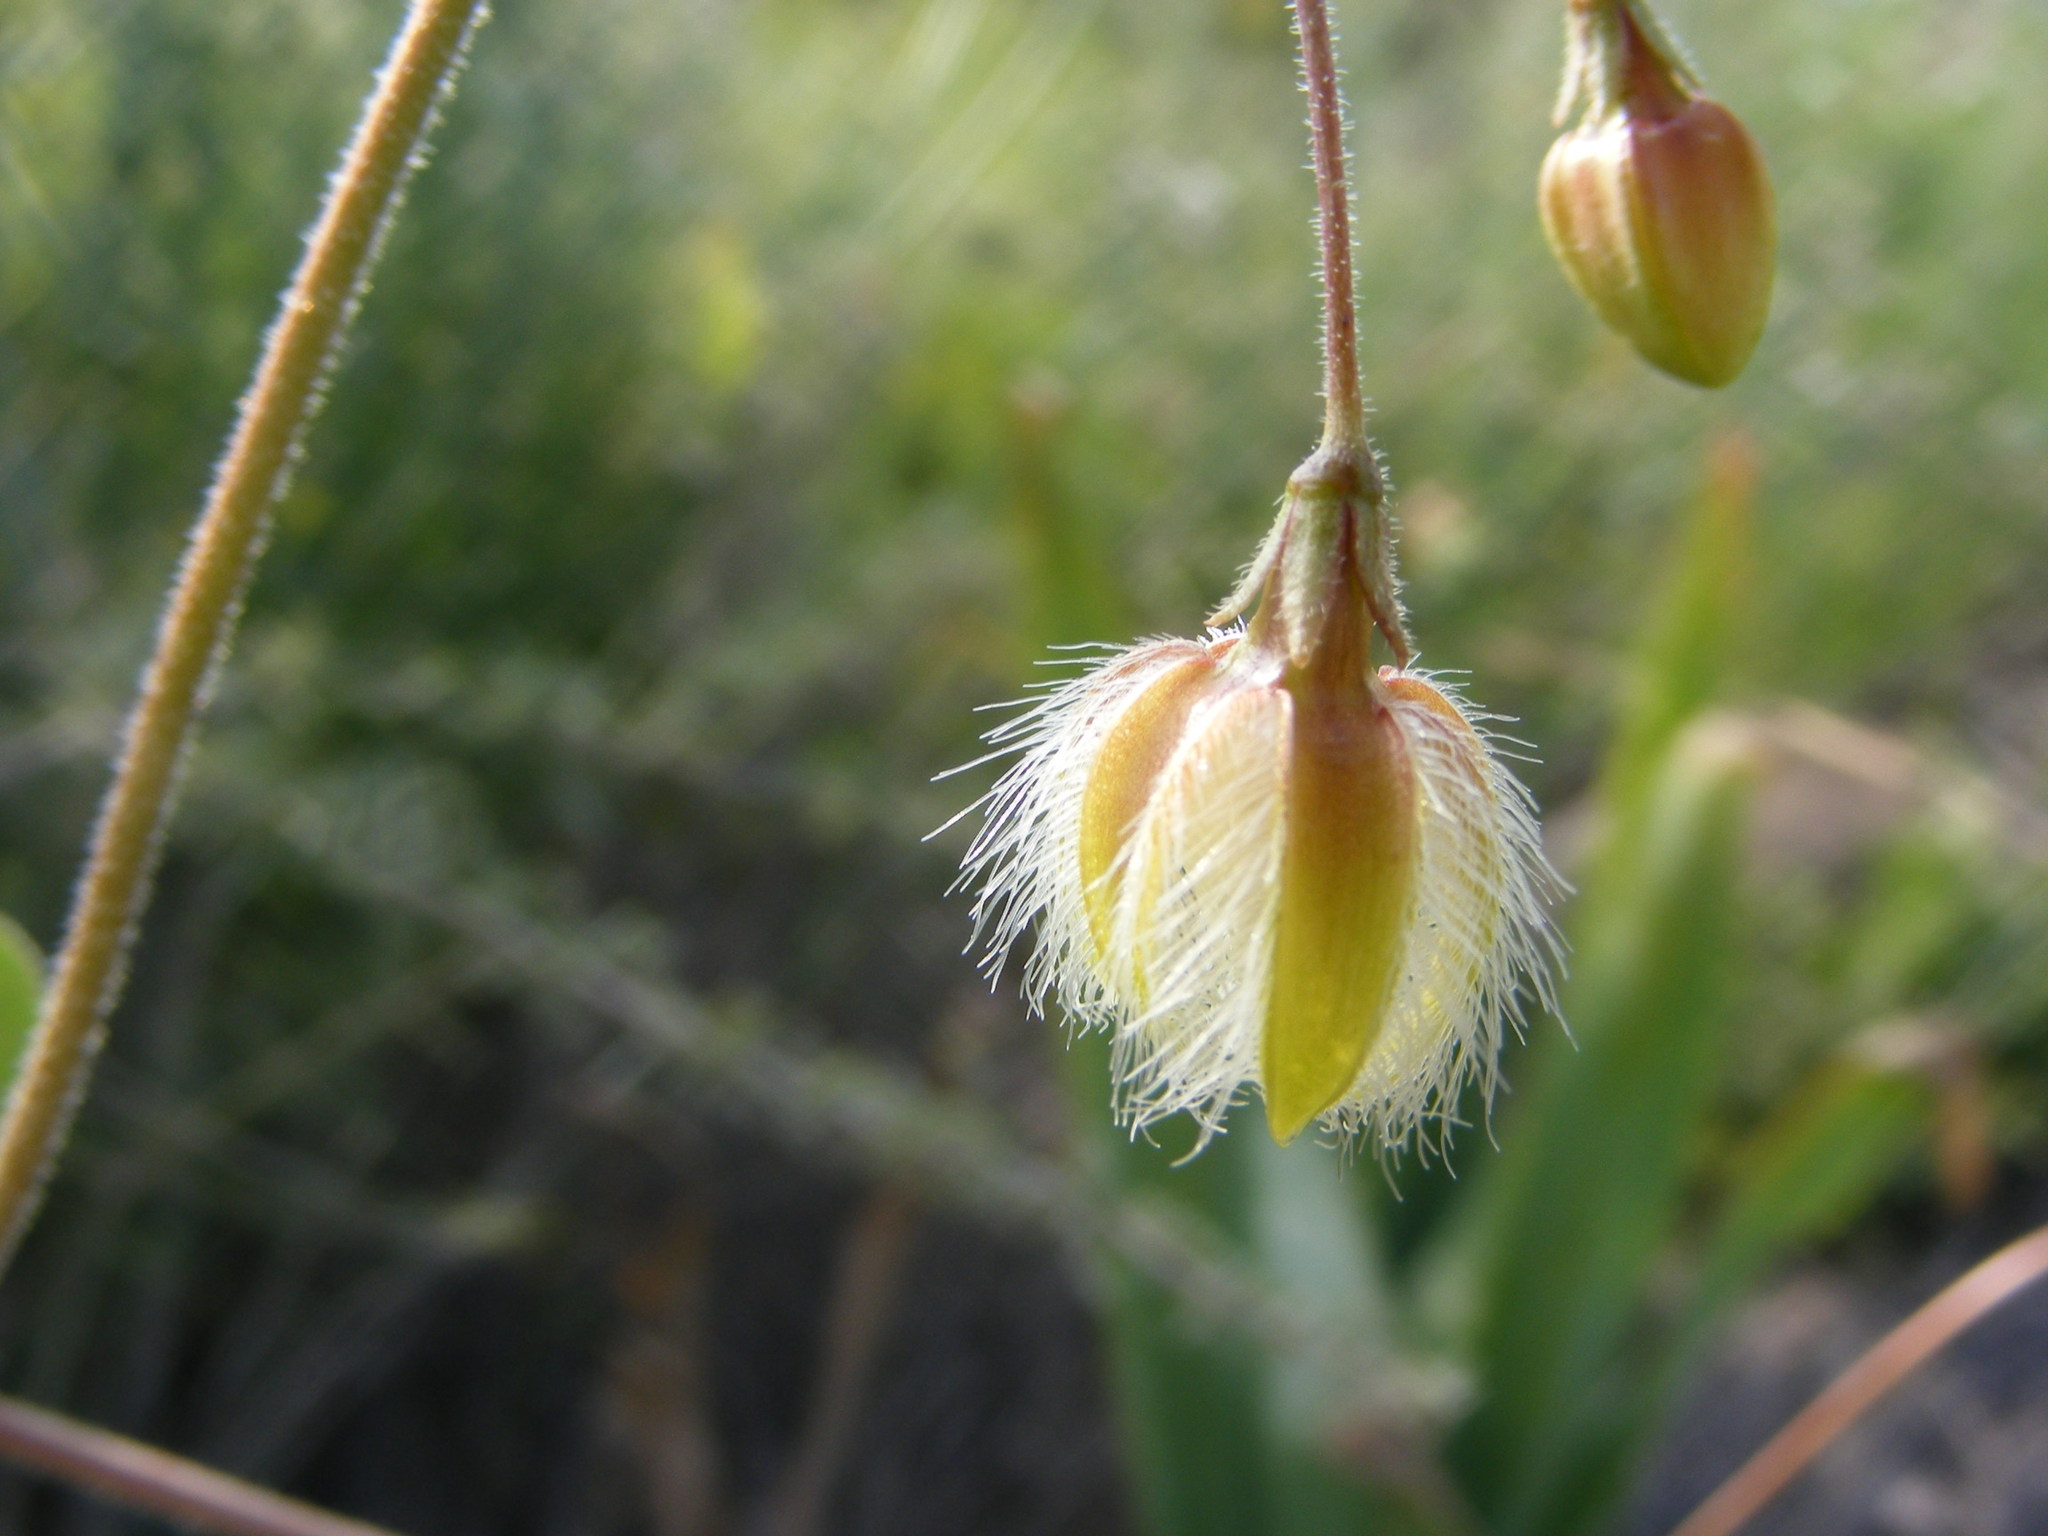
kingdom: Plantae
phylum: Tracheophyta
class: Magnoliopsida
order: Gentianales
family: Apocynaceae
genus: Pergularia
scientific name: Pergularia daemia
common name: Trellis-vine
